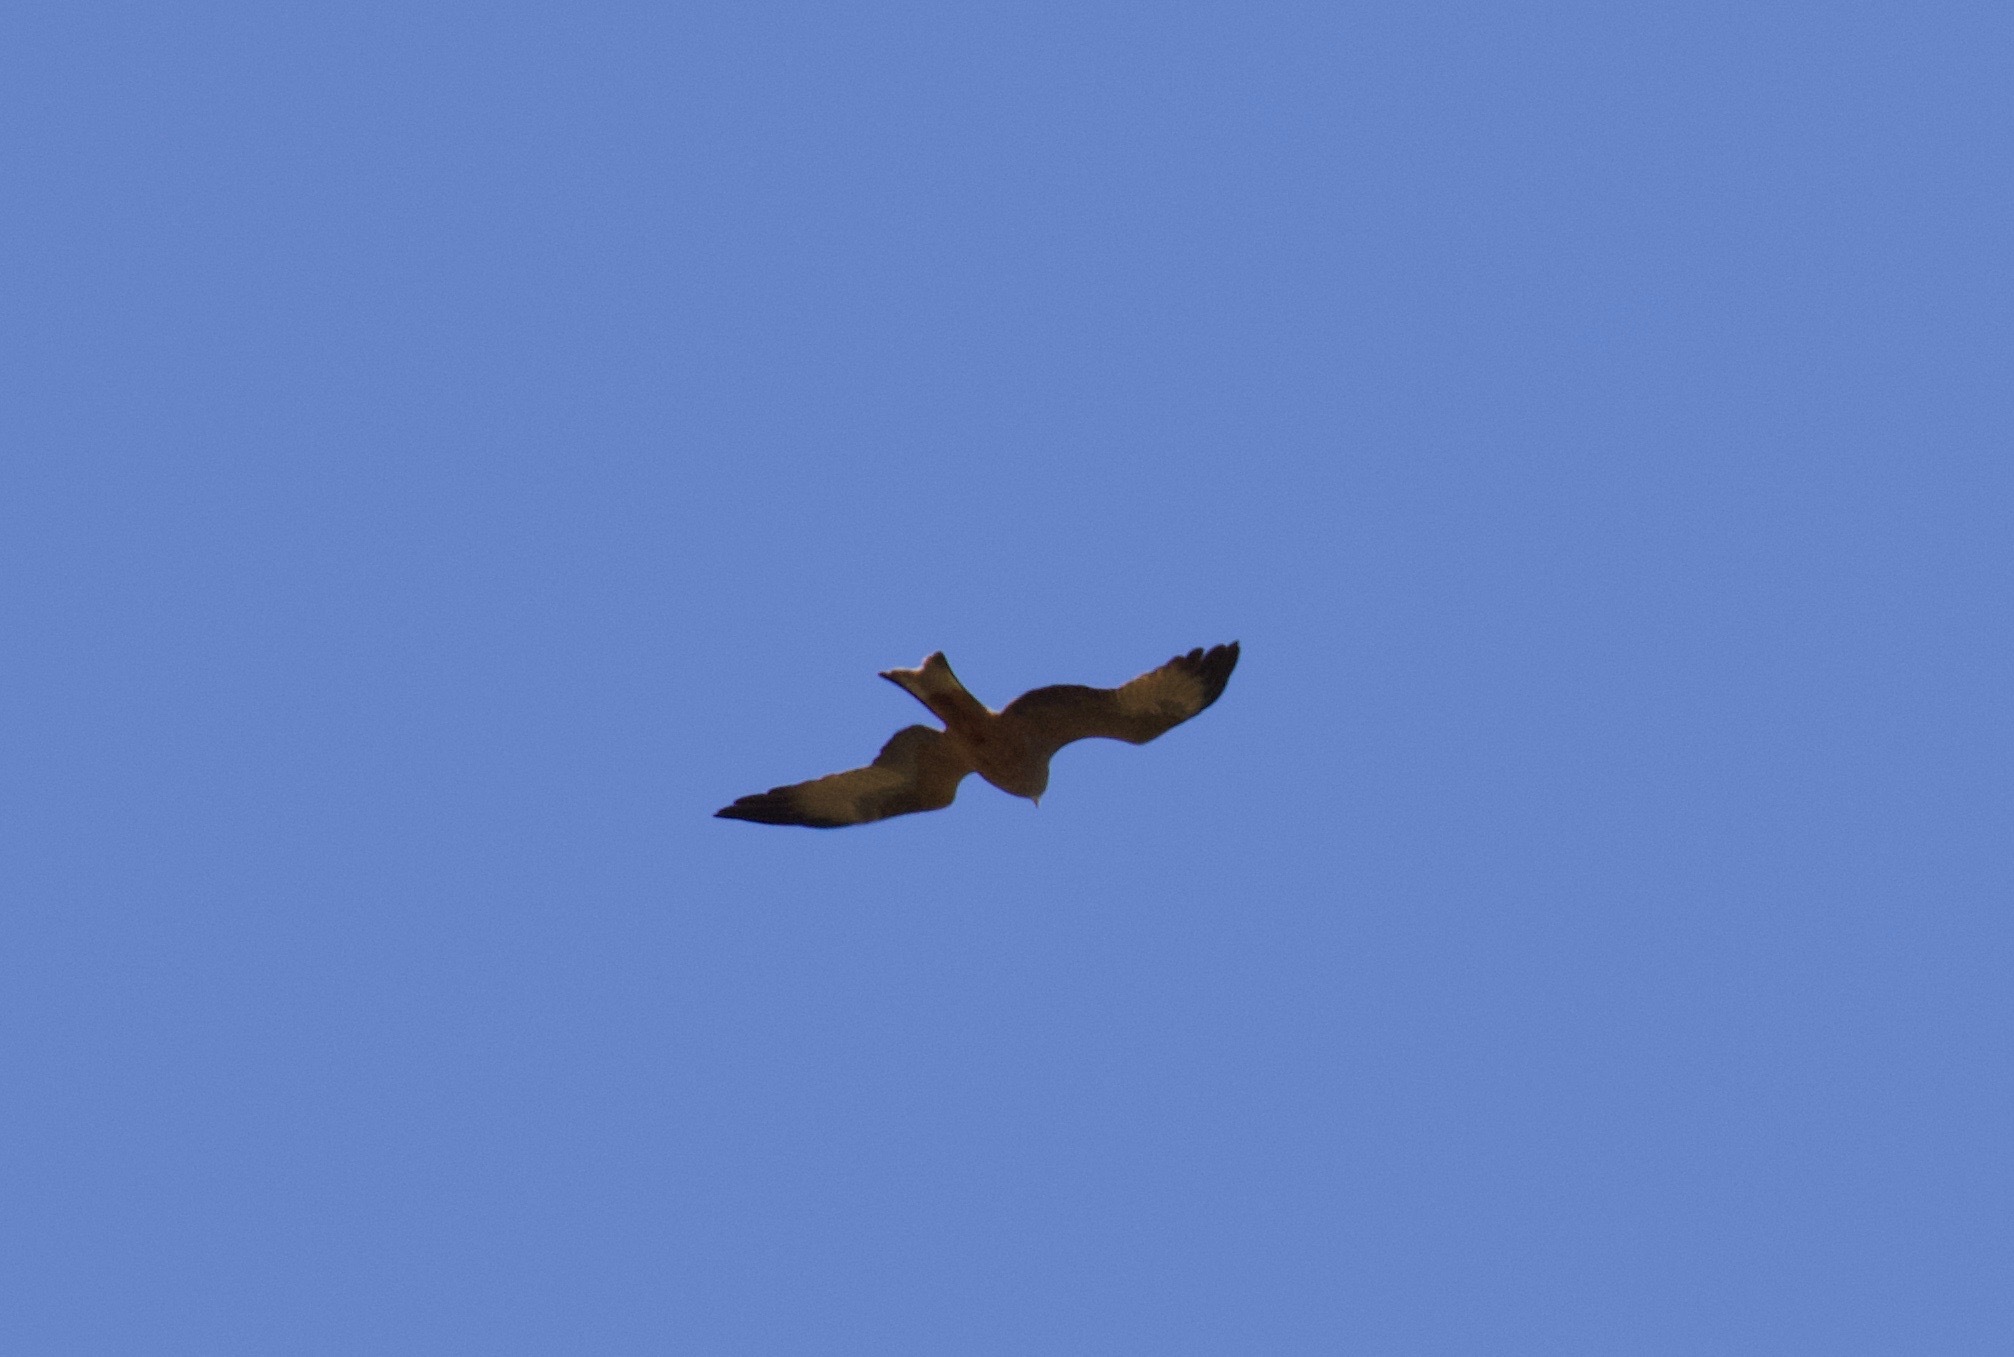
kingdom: Animalia
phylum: Chordata
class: Aves
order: Accipitriformes
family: Accipitridae
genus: Milvus
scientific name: Milvus migrans
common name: Black kite
